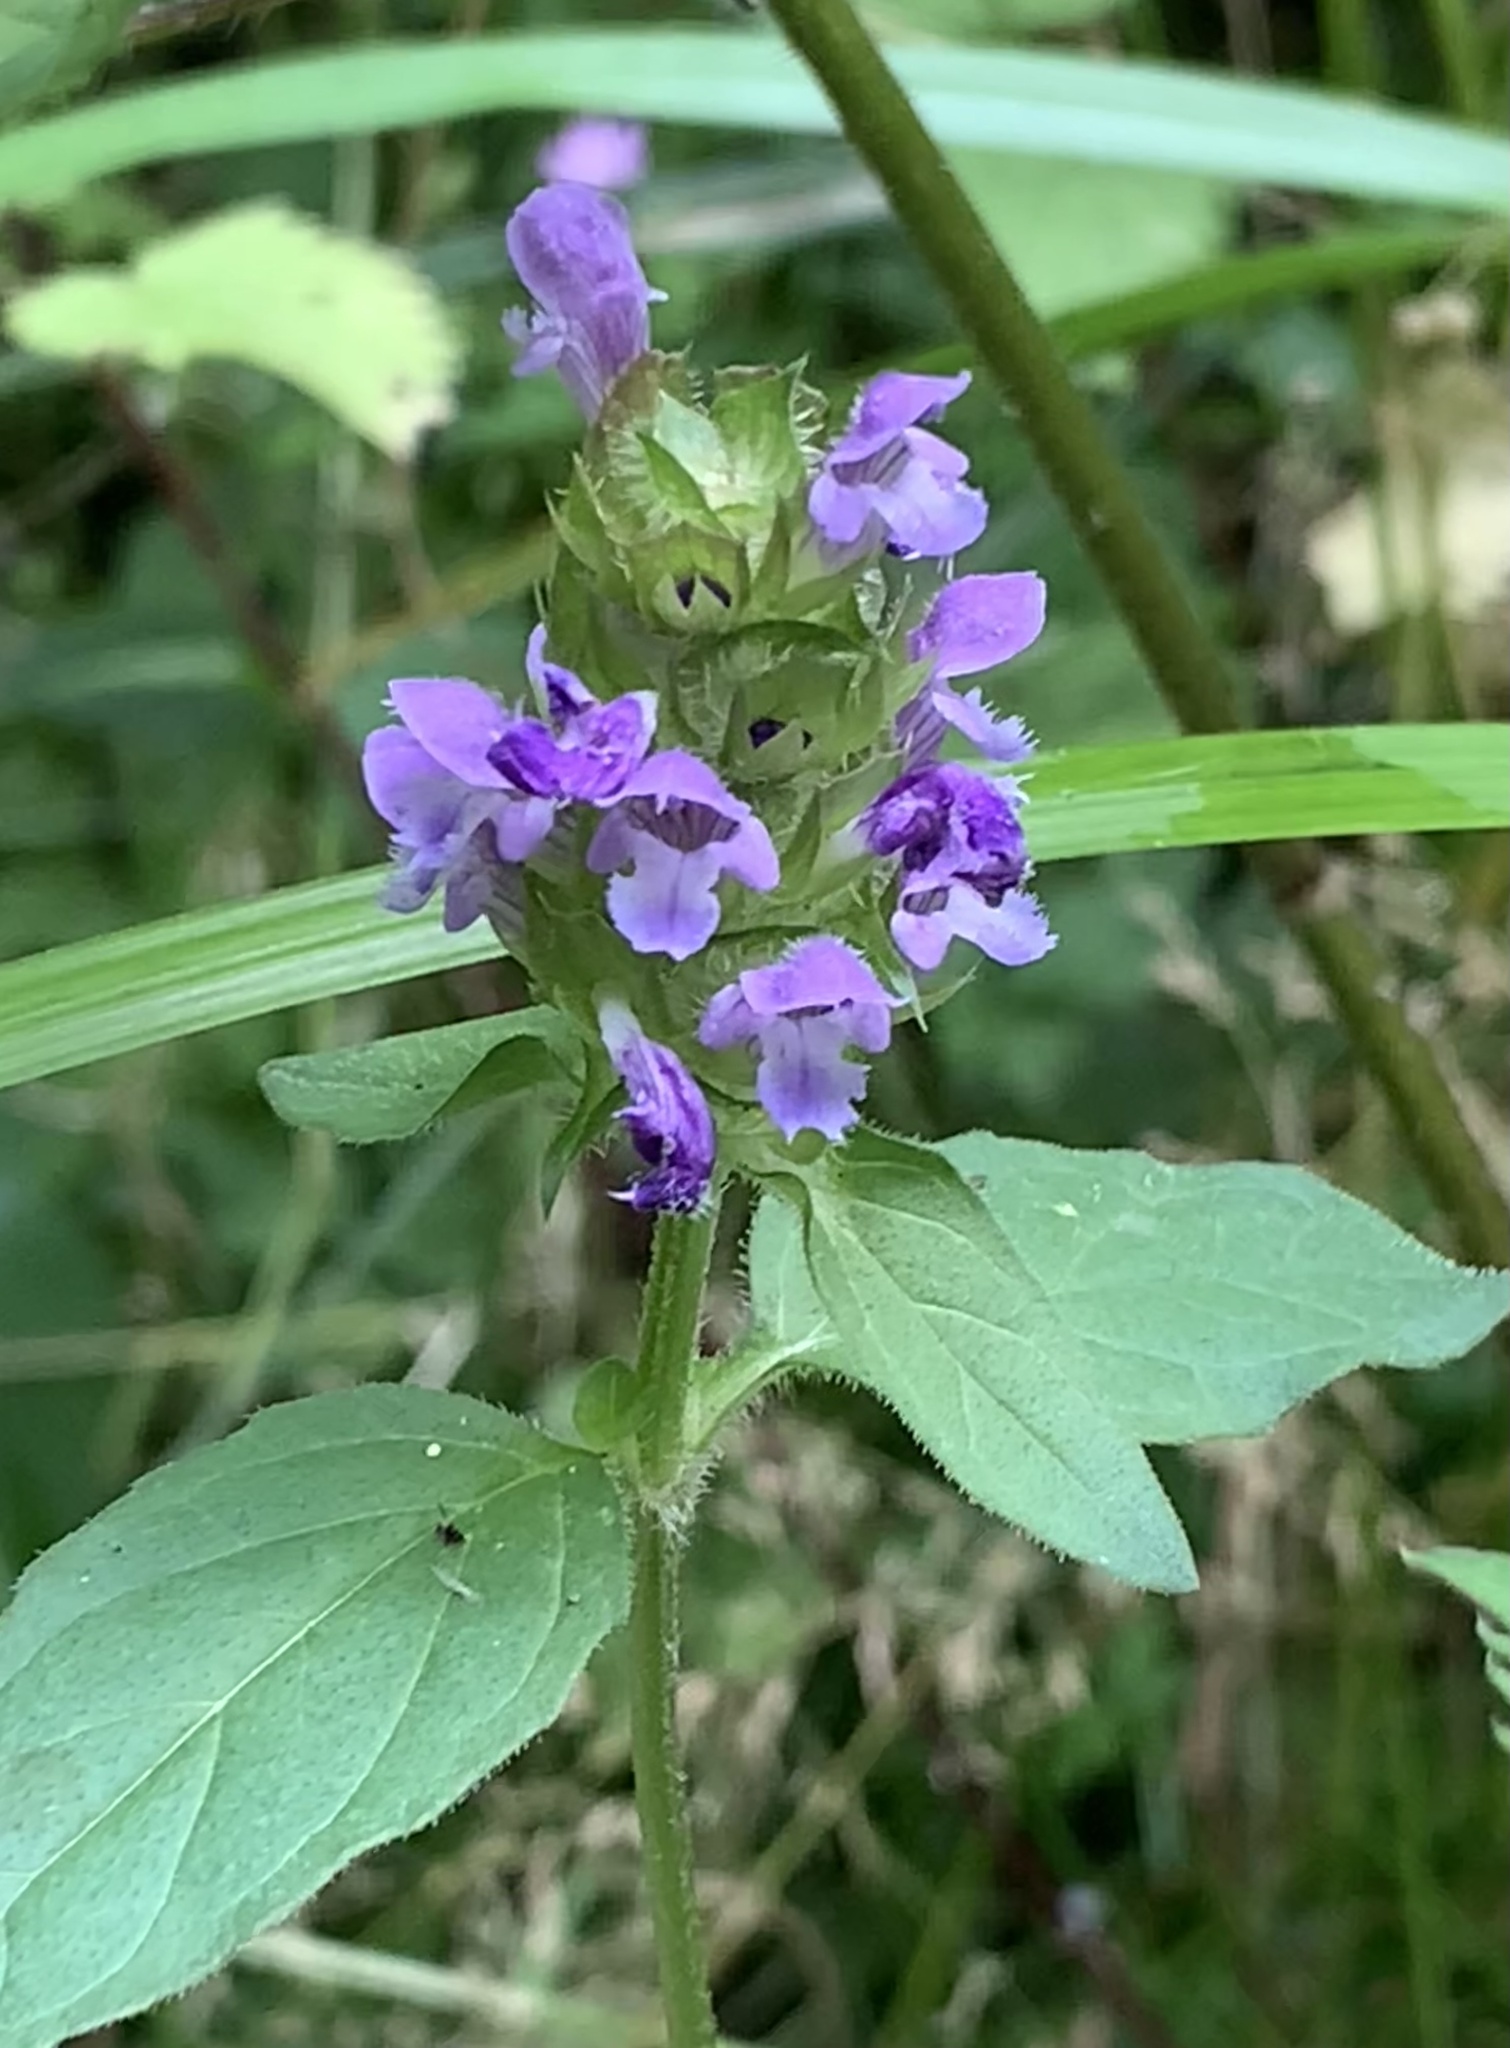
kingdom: Plantae
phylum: Tracheophyta
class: Magnoliopsida
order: Lamiales
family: Lamiaceae
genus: Prunella
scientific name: Prunella vulgaris
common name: Heal-all
